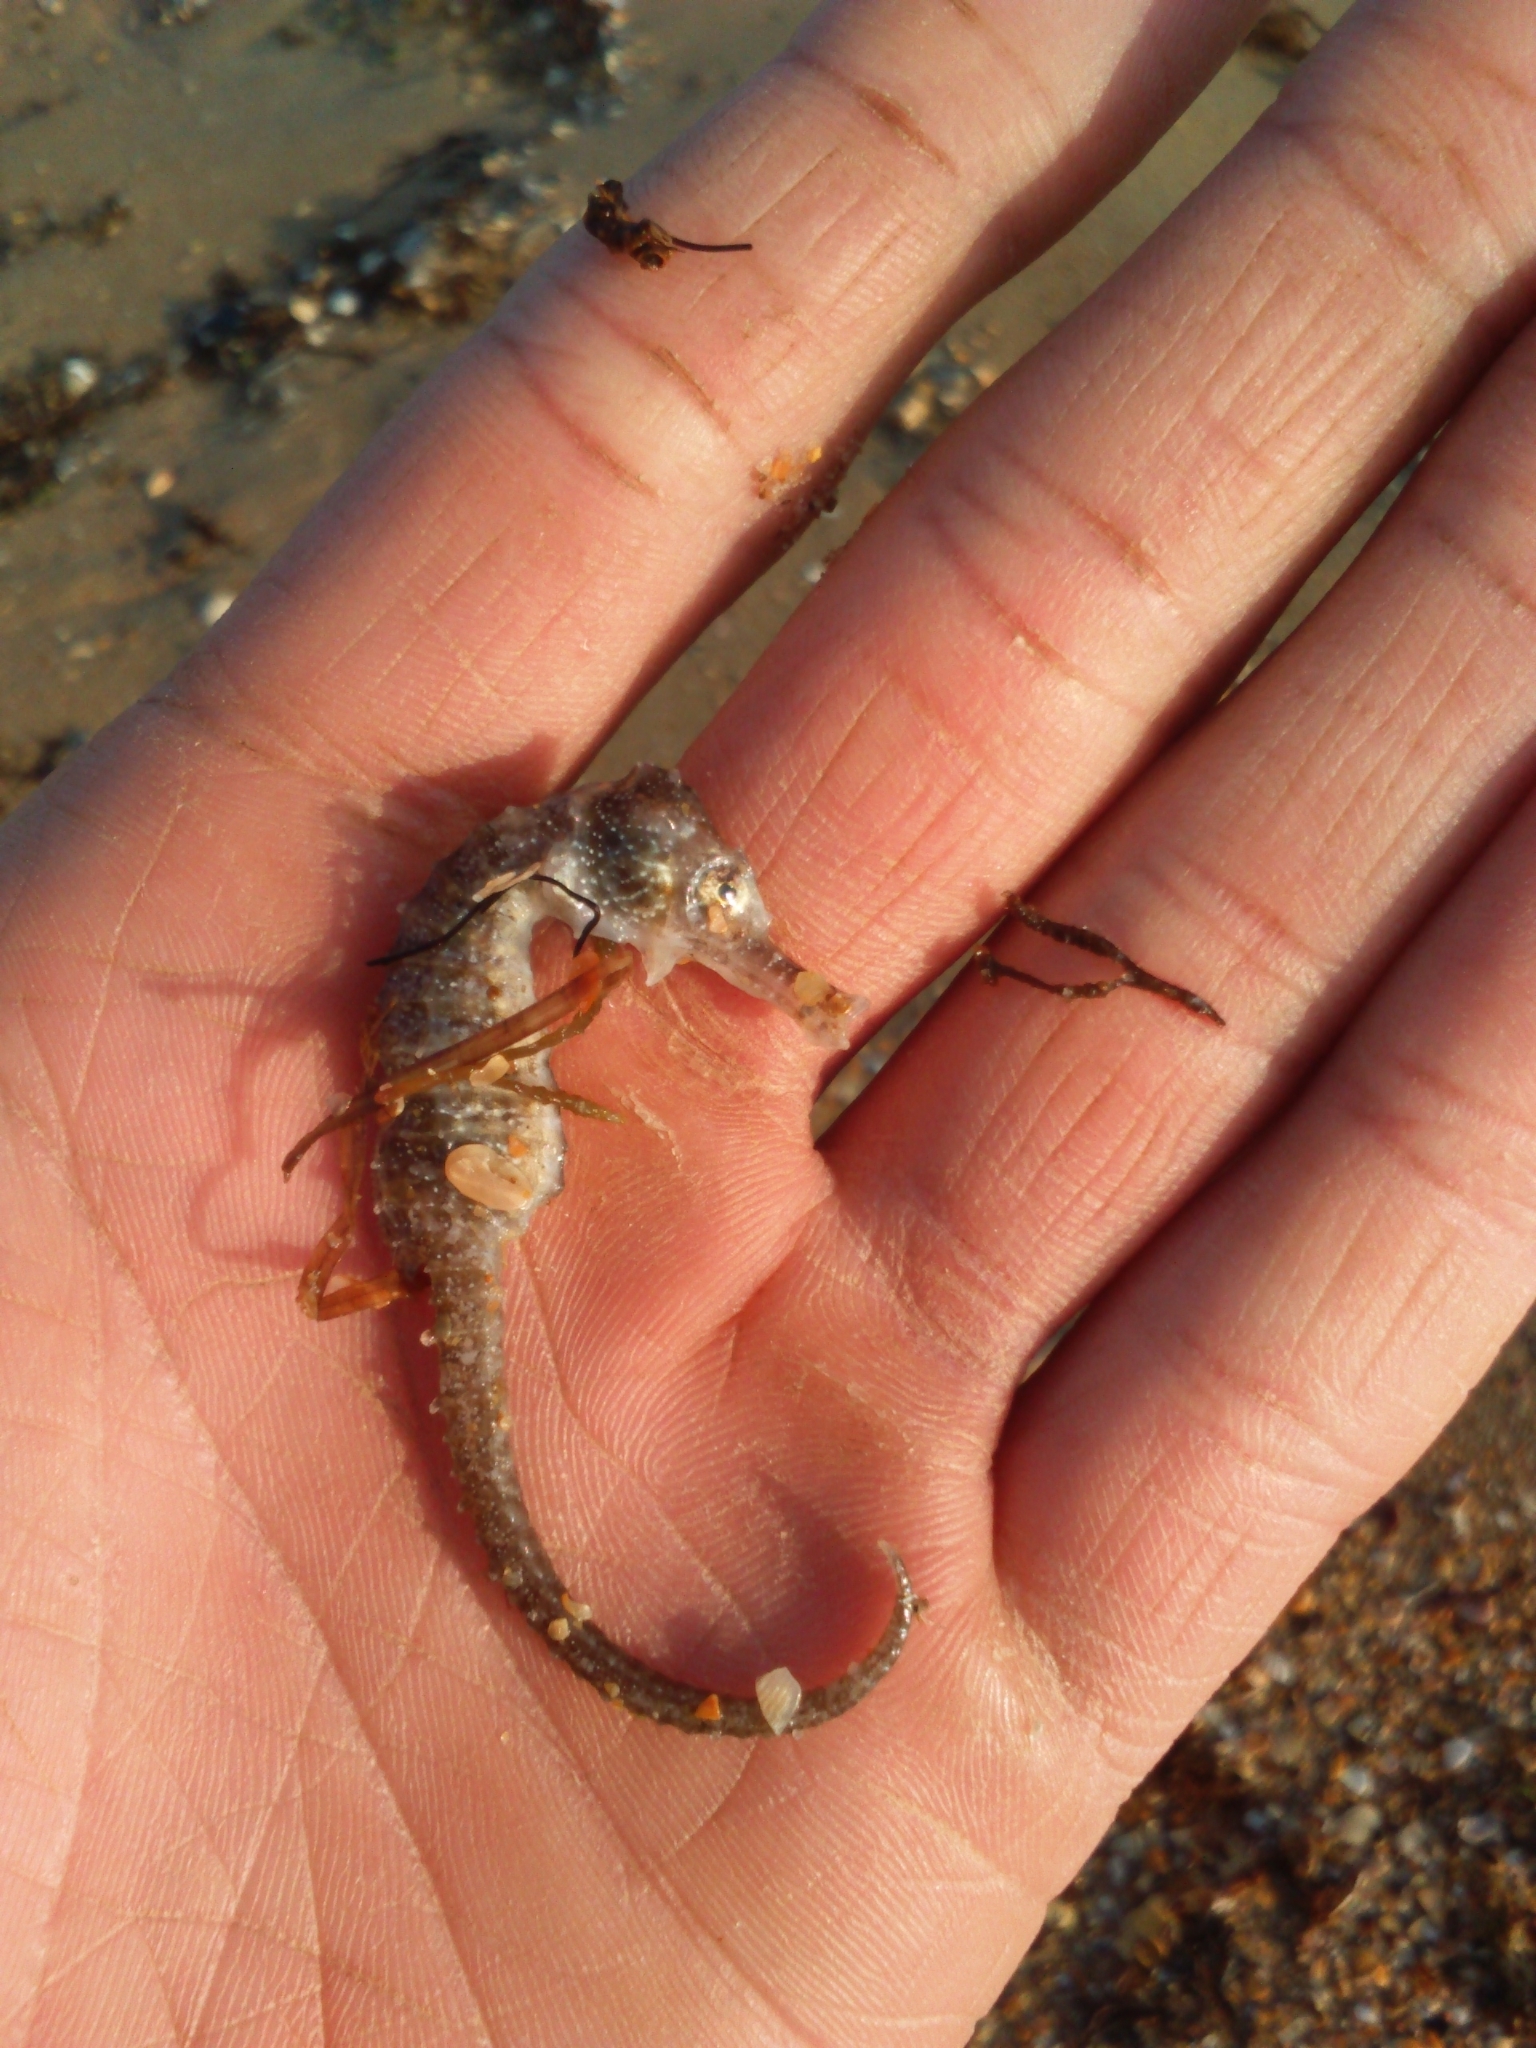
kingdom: Animalia
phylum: Chordata
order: Syngnathiformes
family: Syngnathidae
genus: Hippocampus
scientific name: Hippocampus guttulatus
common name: Long-snouted seahorse
